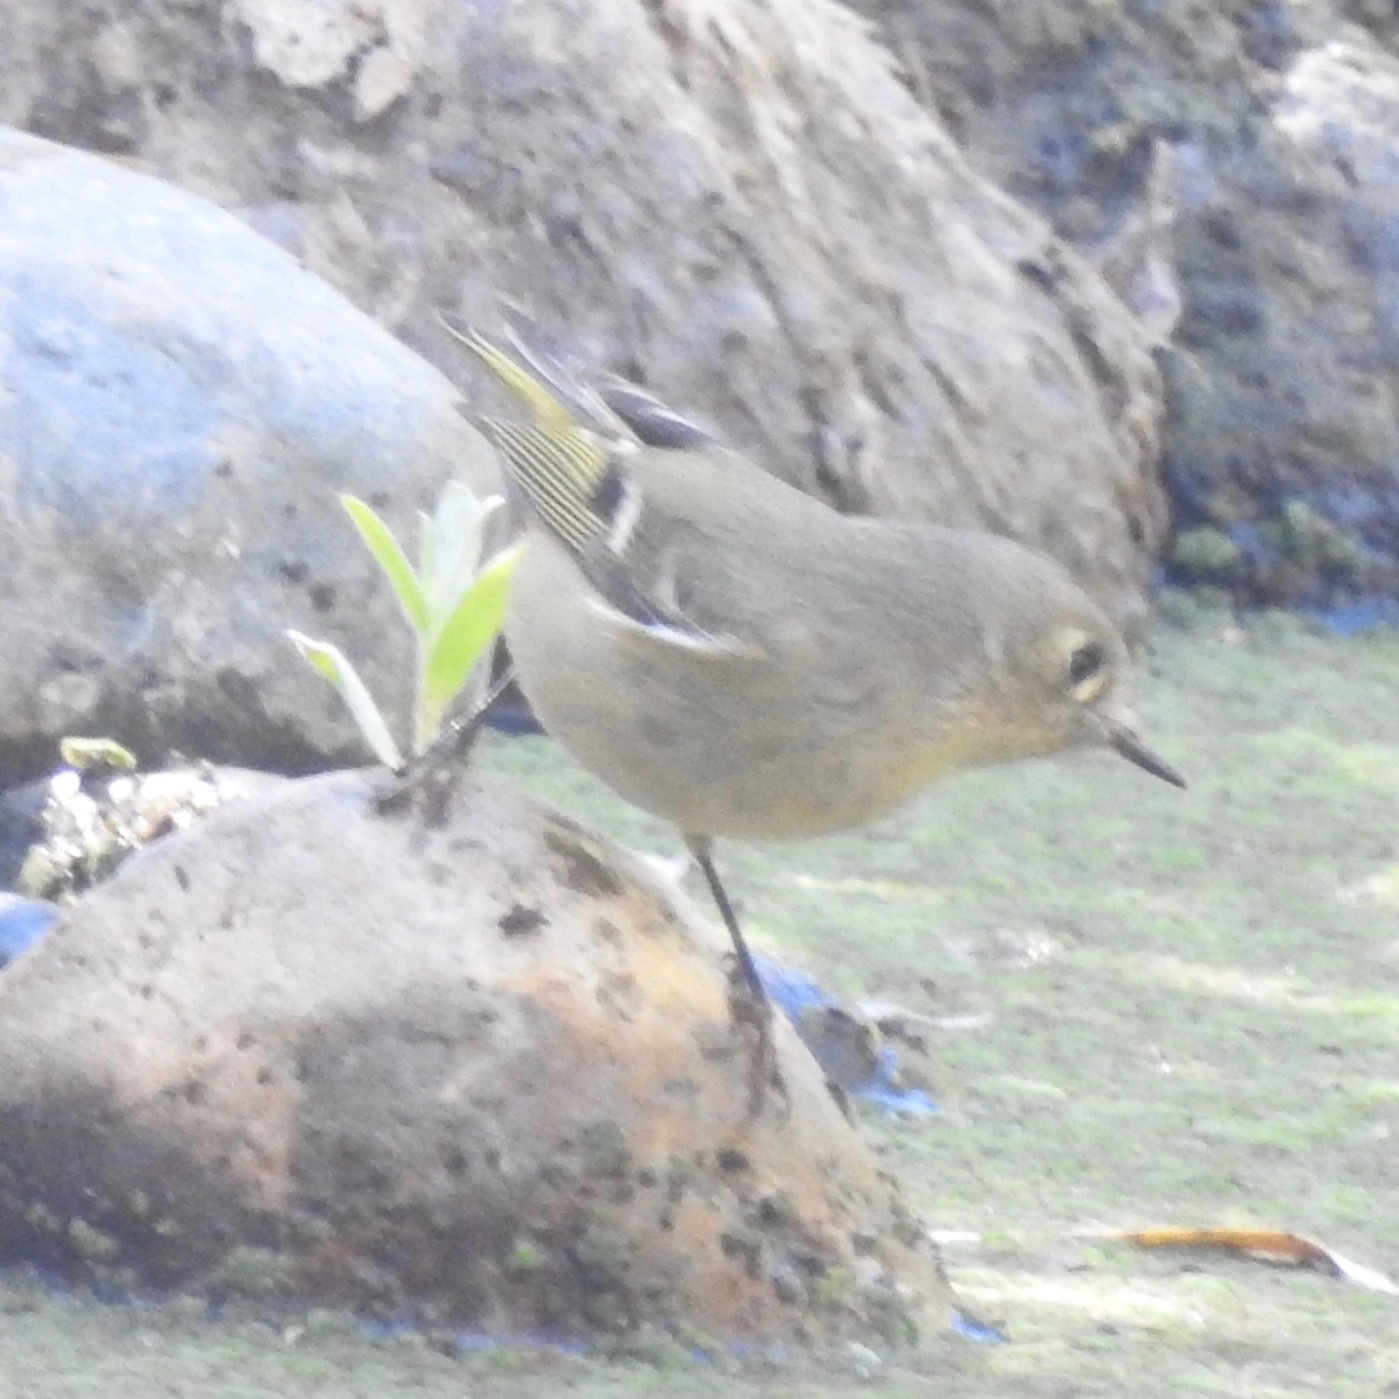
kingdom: Animalia
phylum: Chordata
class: Aves
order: Passeriformes
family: Regulidae
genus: Regulus
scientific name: Regulus calendula
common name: Ruby-crowned kinglet
